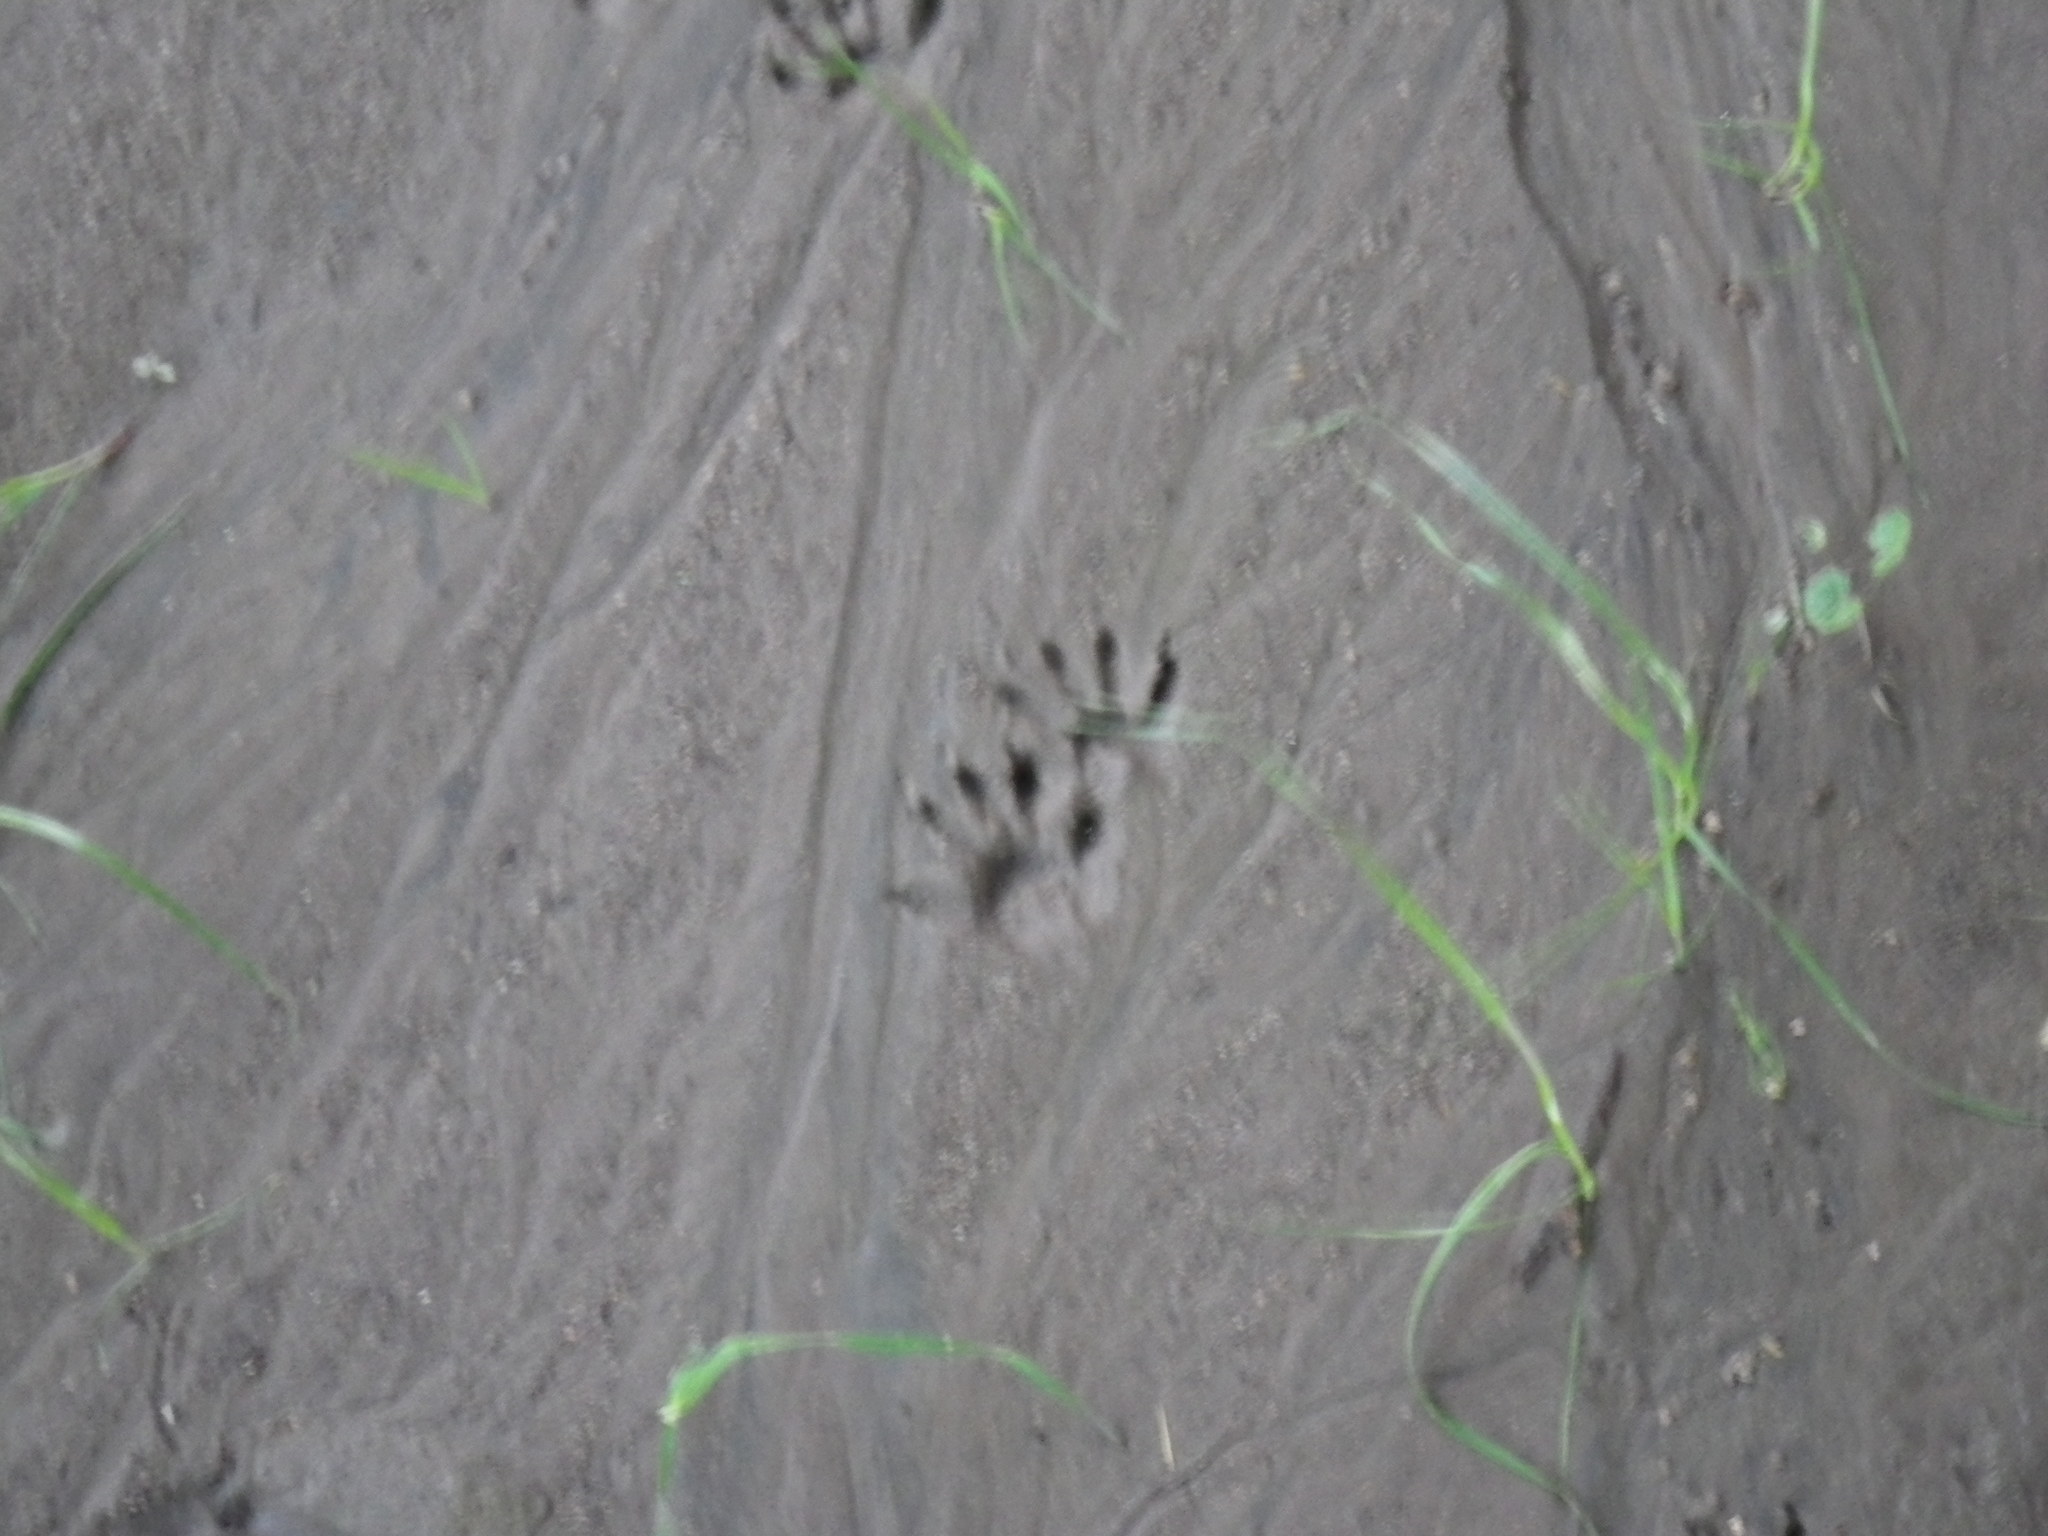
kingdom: Animalia
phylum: Chordata
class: Mammalia
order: Carnivora
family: Procyonidae
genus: Procyon
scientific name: Procyon lotor
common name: Raccoon
